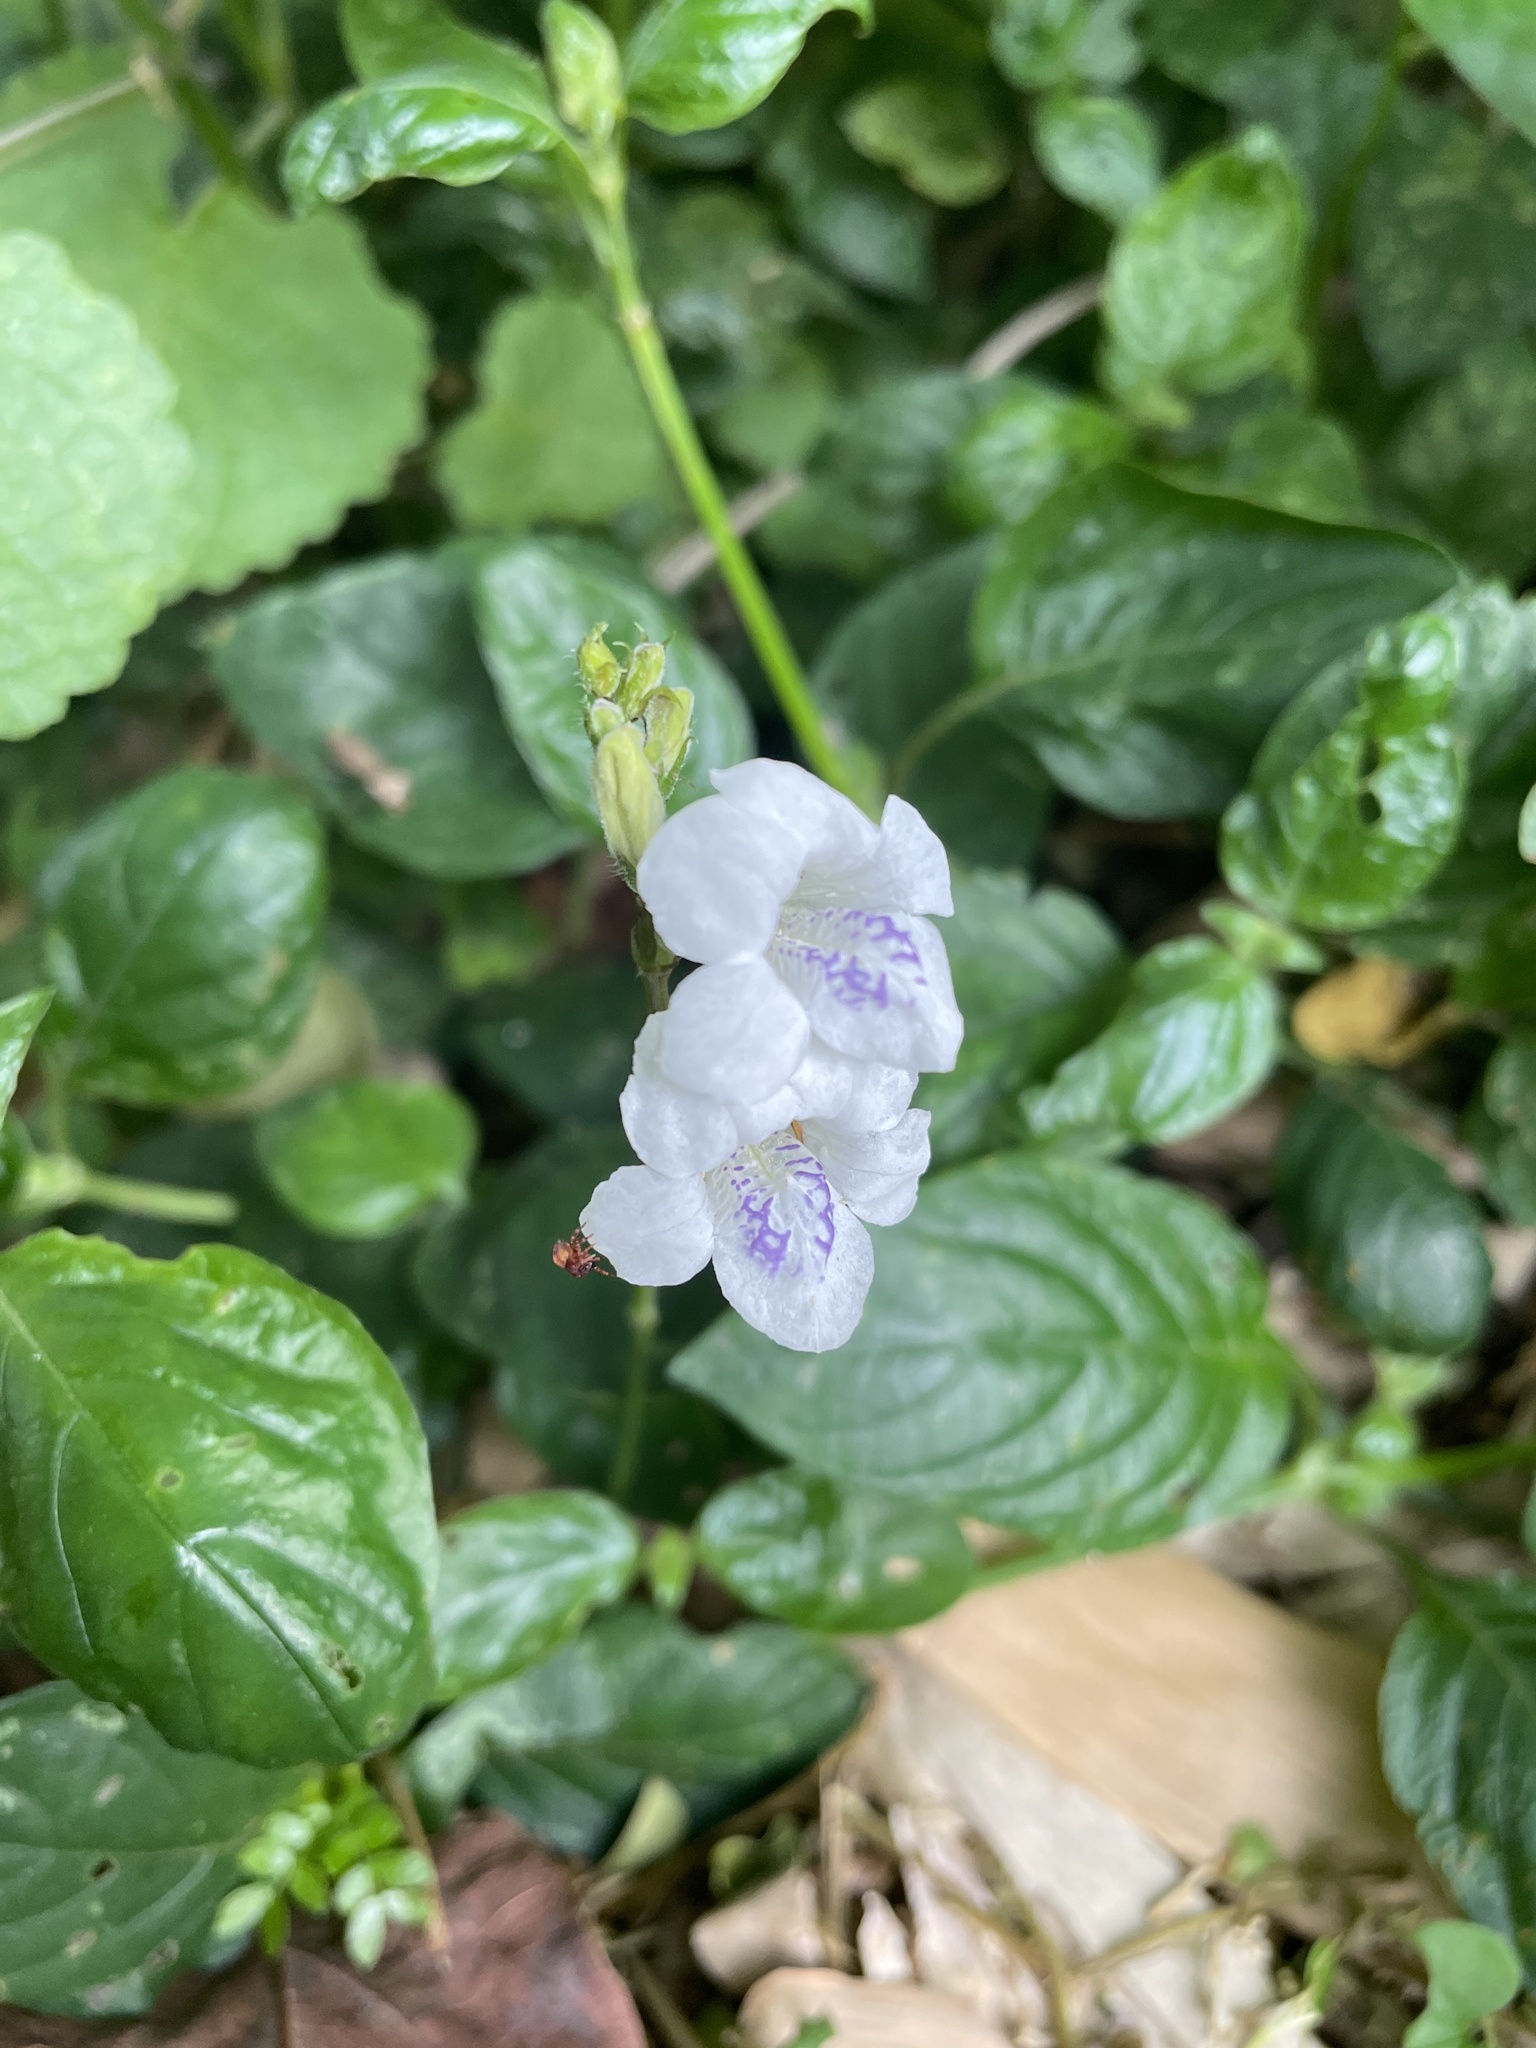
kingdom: Plantae
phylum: Tracheophyta
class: Magnoliopsida
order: Lamiales
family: Acanthaceae
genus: Asystasia
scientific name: Asystasia intrusa
